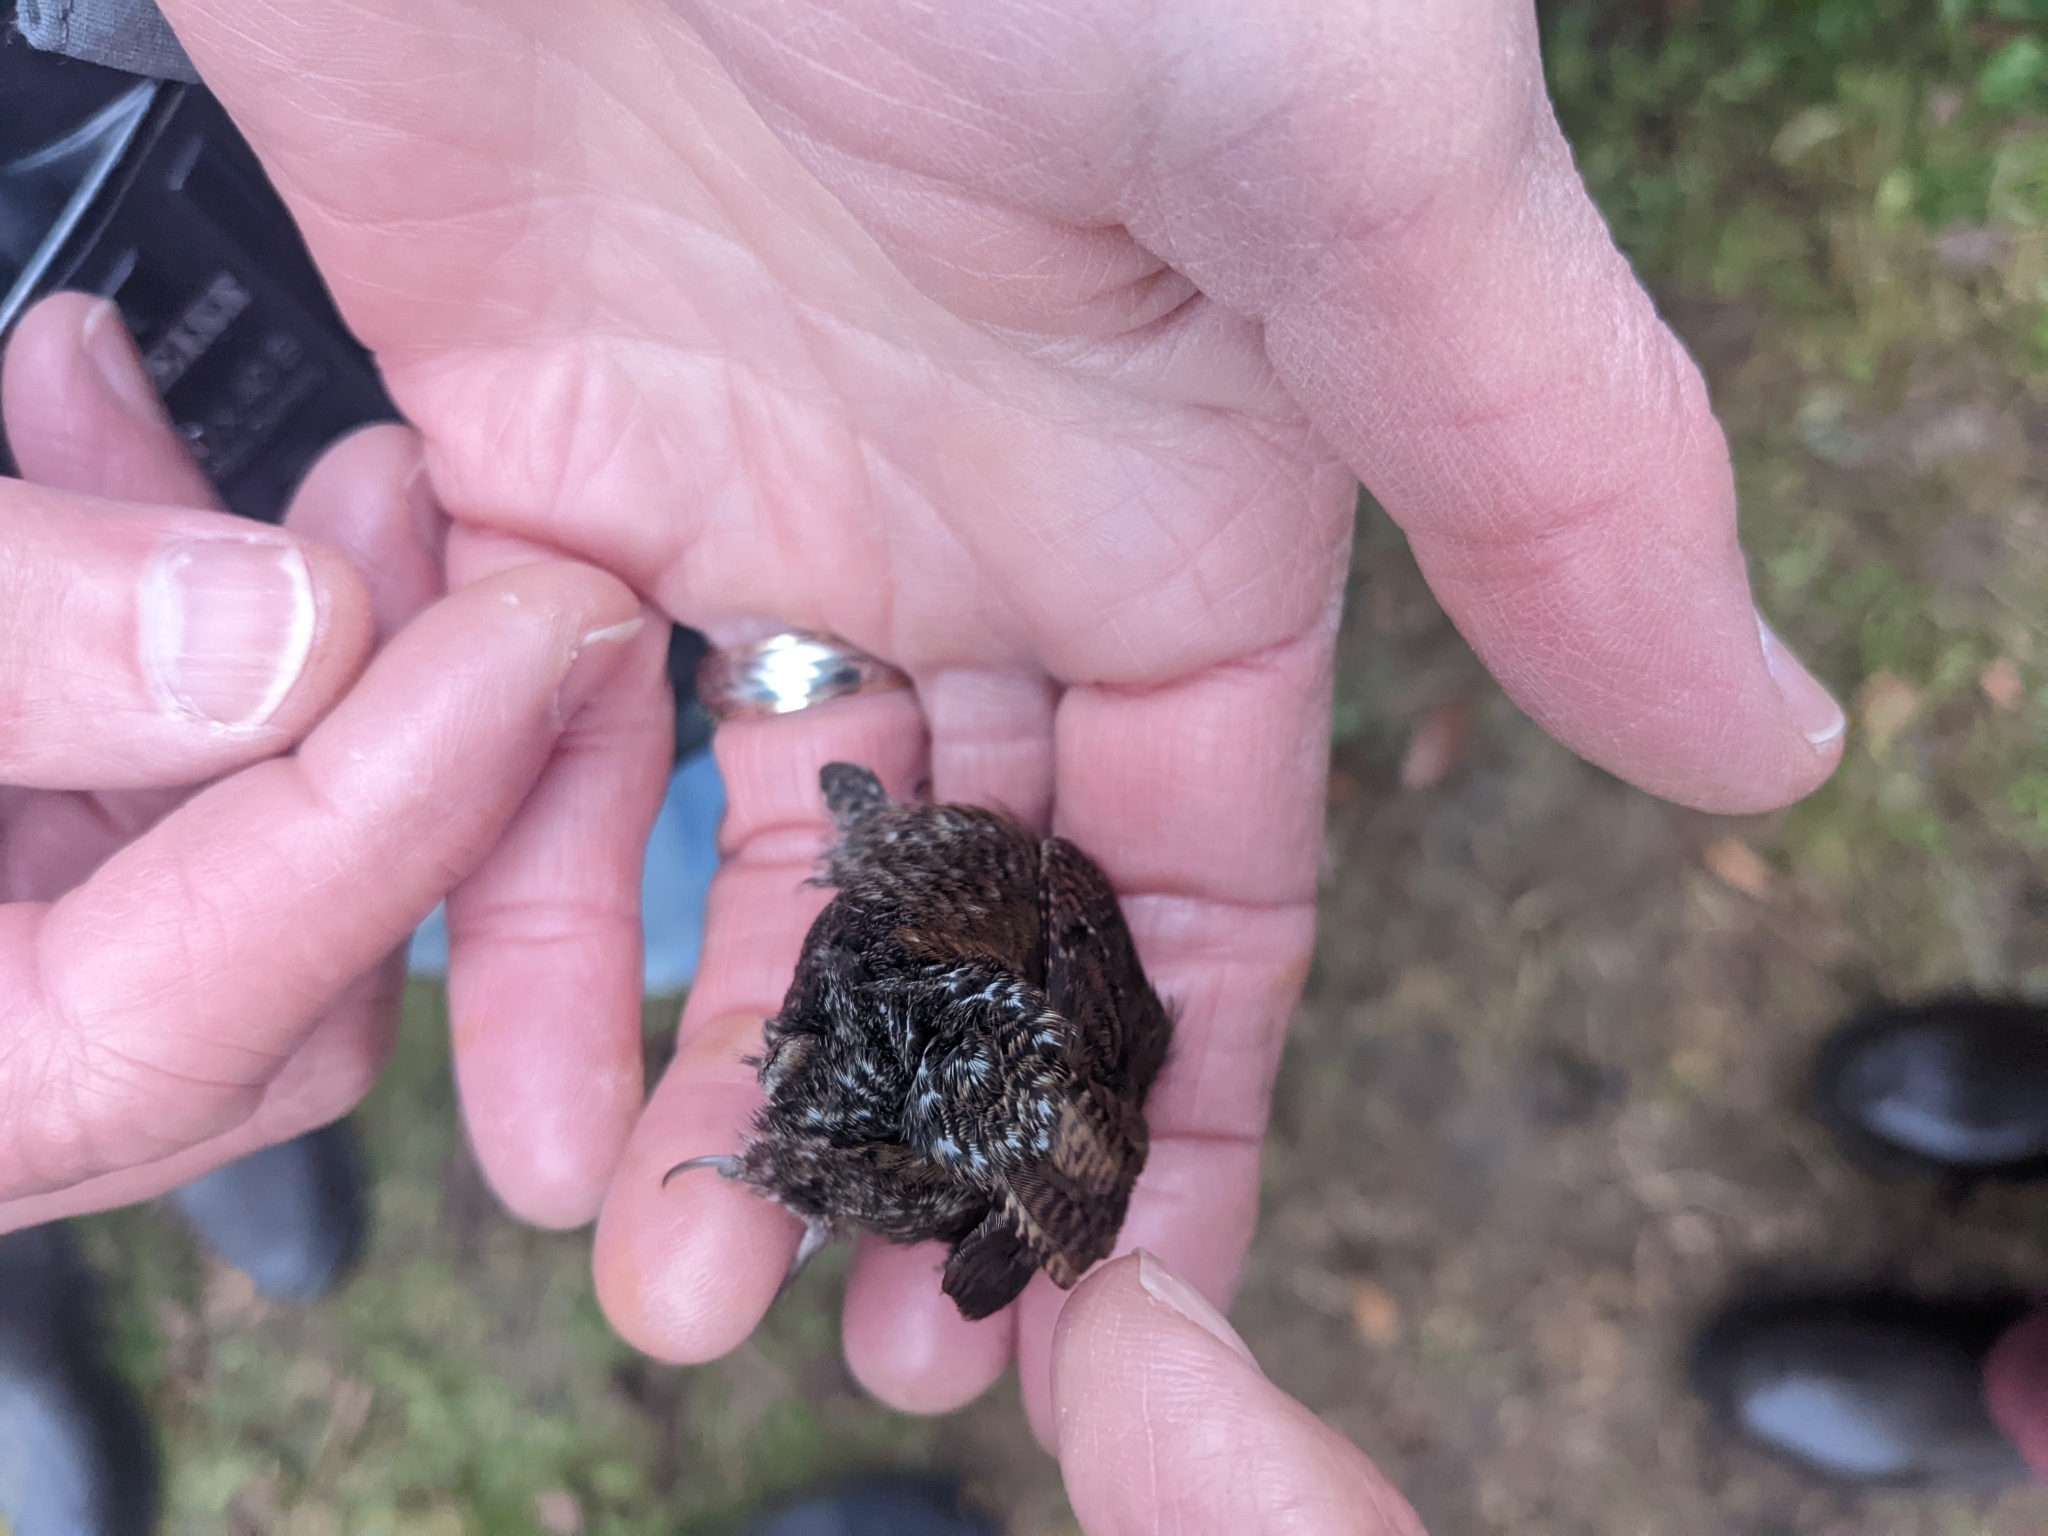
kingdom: Animalia
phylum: Chordata
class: Aves
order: Passeriformes
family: Troglodytidae
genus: Troglodytes
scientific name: Troglodytes hiemalis
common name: Winter wren
